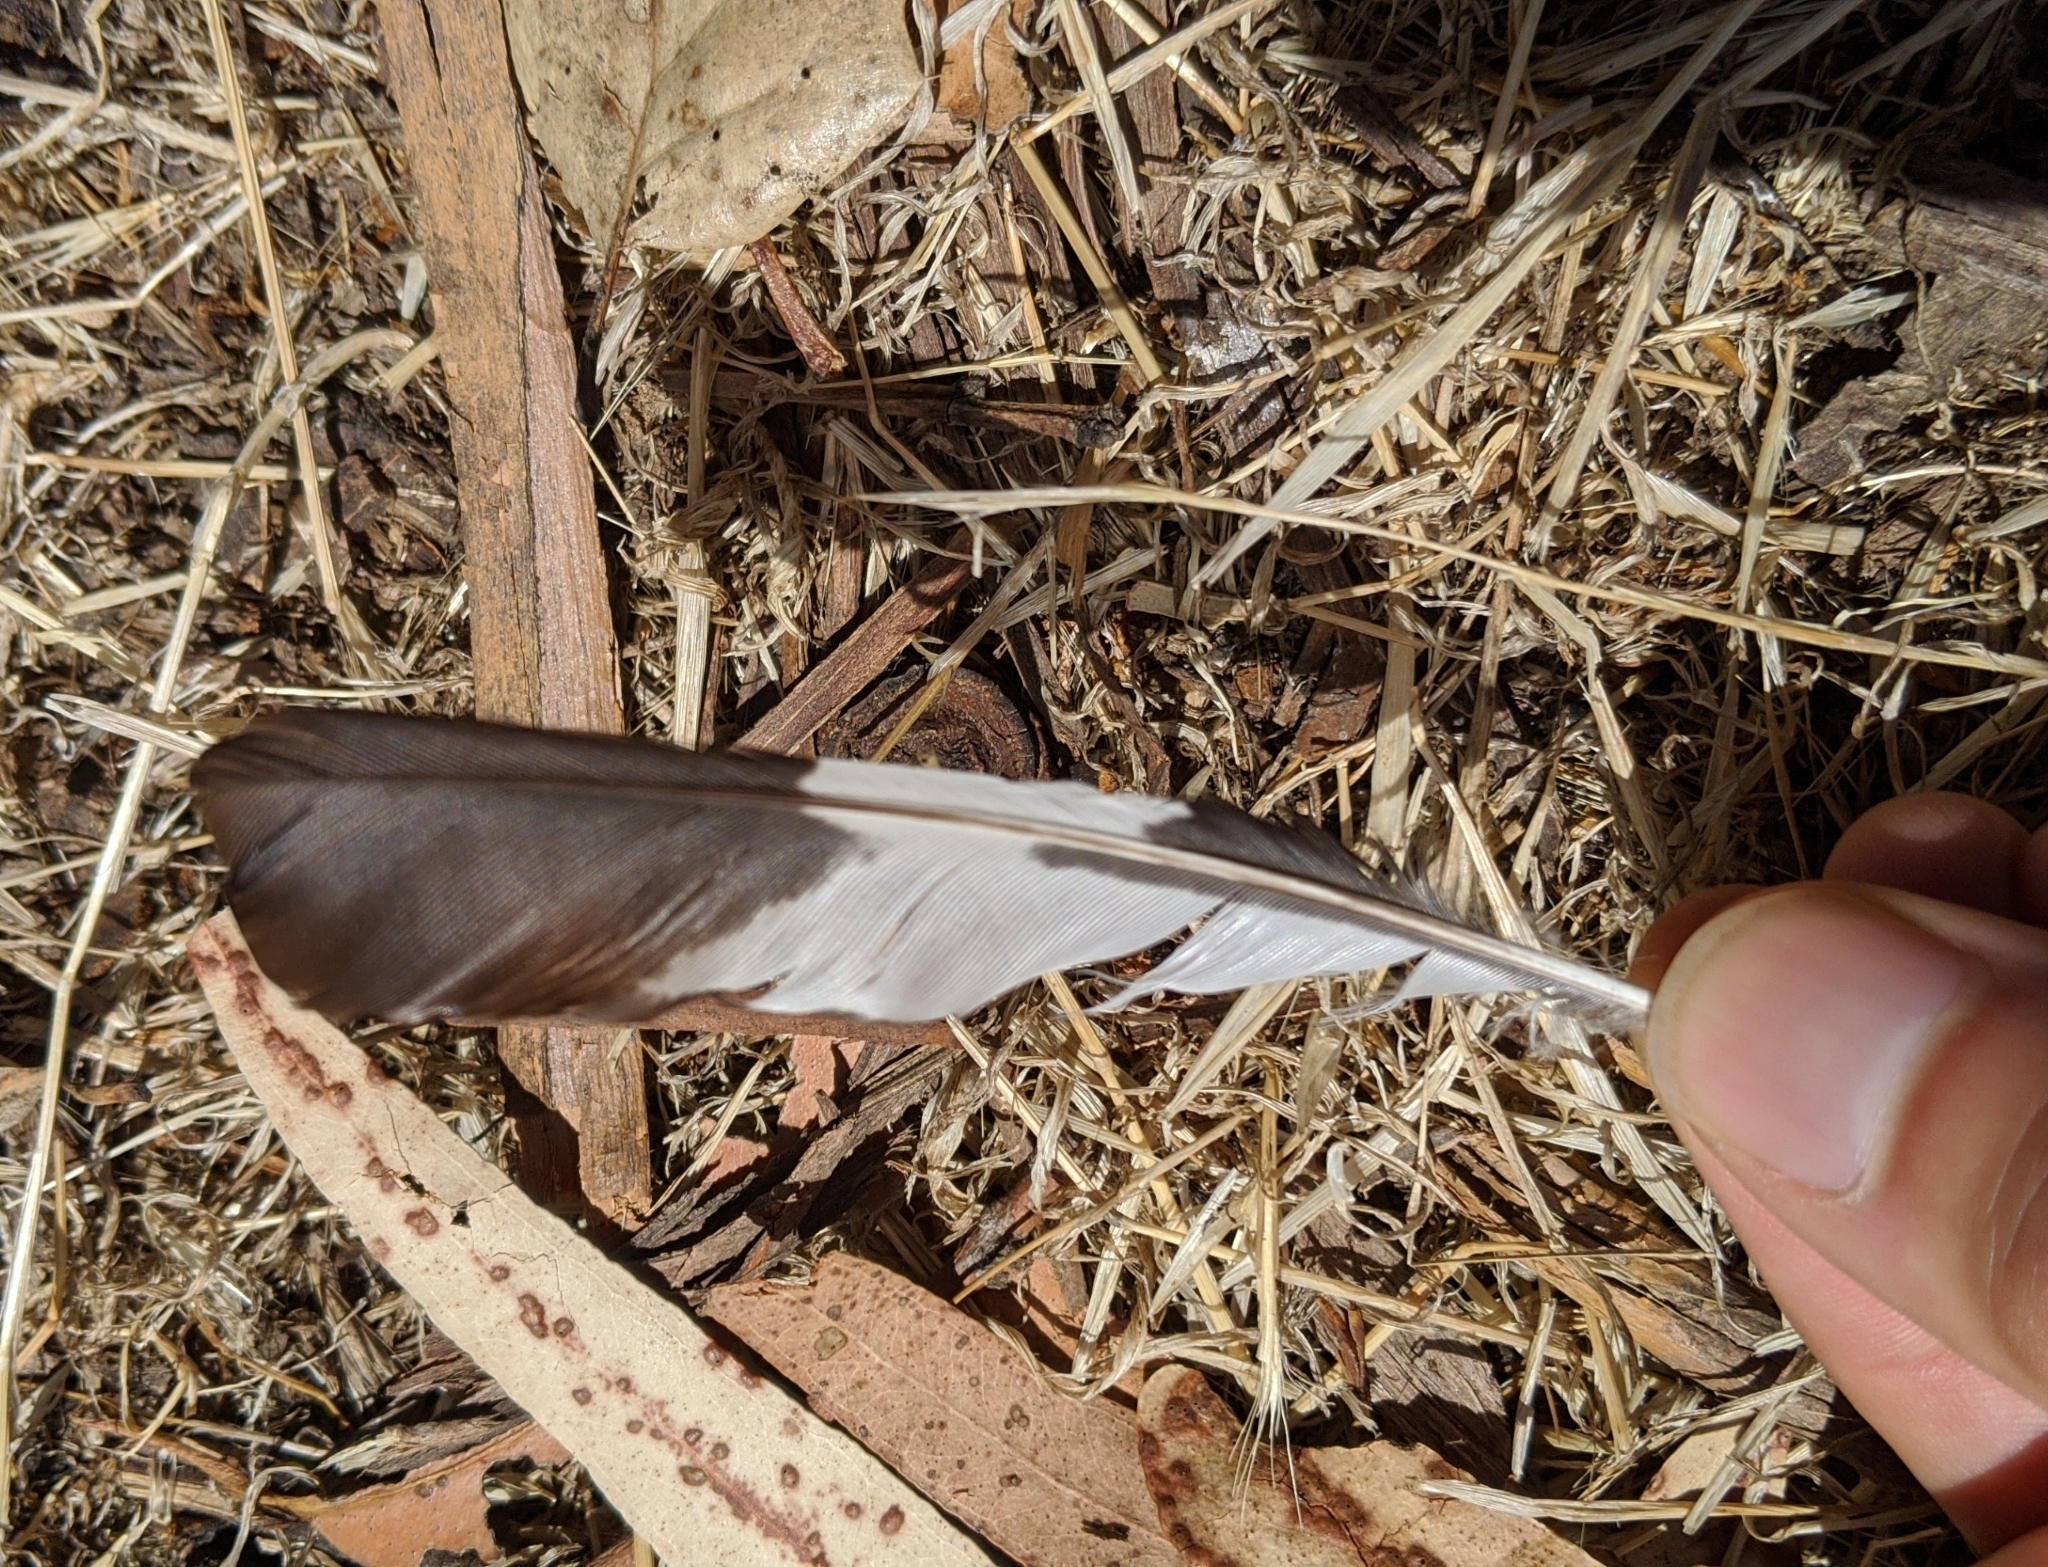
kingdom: Animalia
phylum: Chordata
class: Aves
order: Piciformes
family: Picidae
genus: Melanerpes
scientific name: Melanerpes formicivorus
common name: Acorn woodpecker
